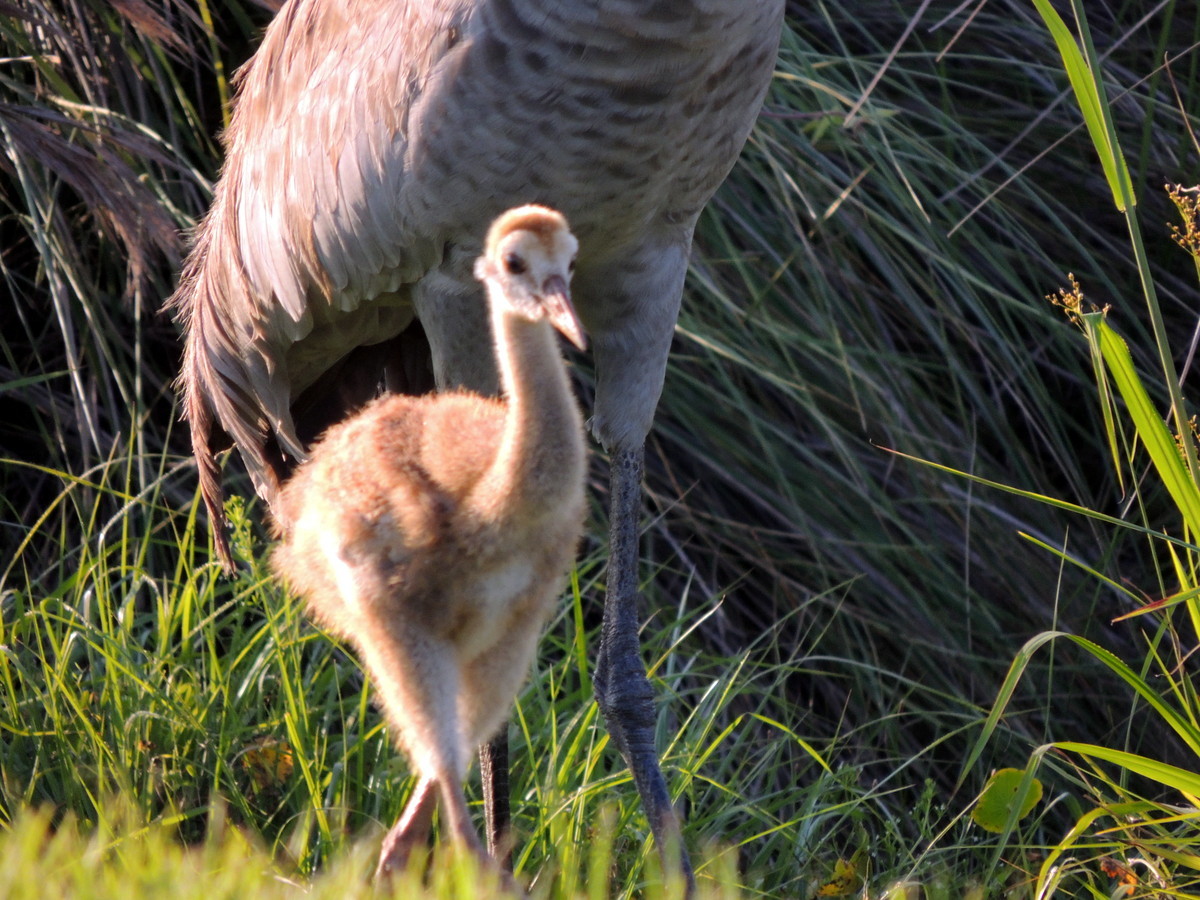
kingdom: Animalia
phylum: Chordata
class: Aves
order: Gruiformes
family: Gruidae
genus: Grus
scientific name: Grus canadensis
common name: Sandhill crane
